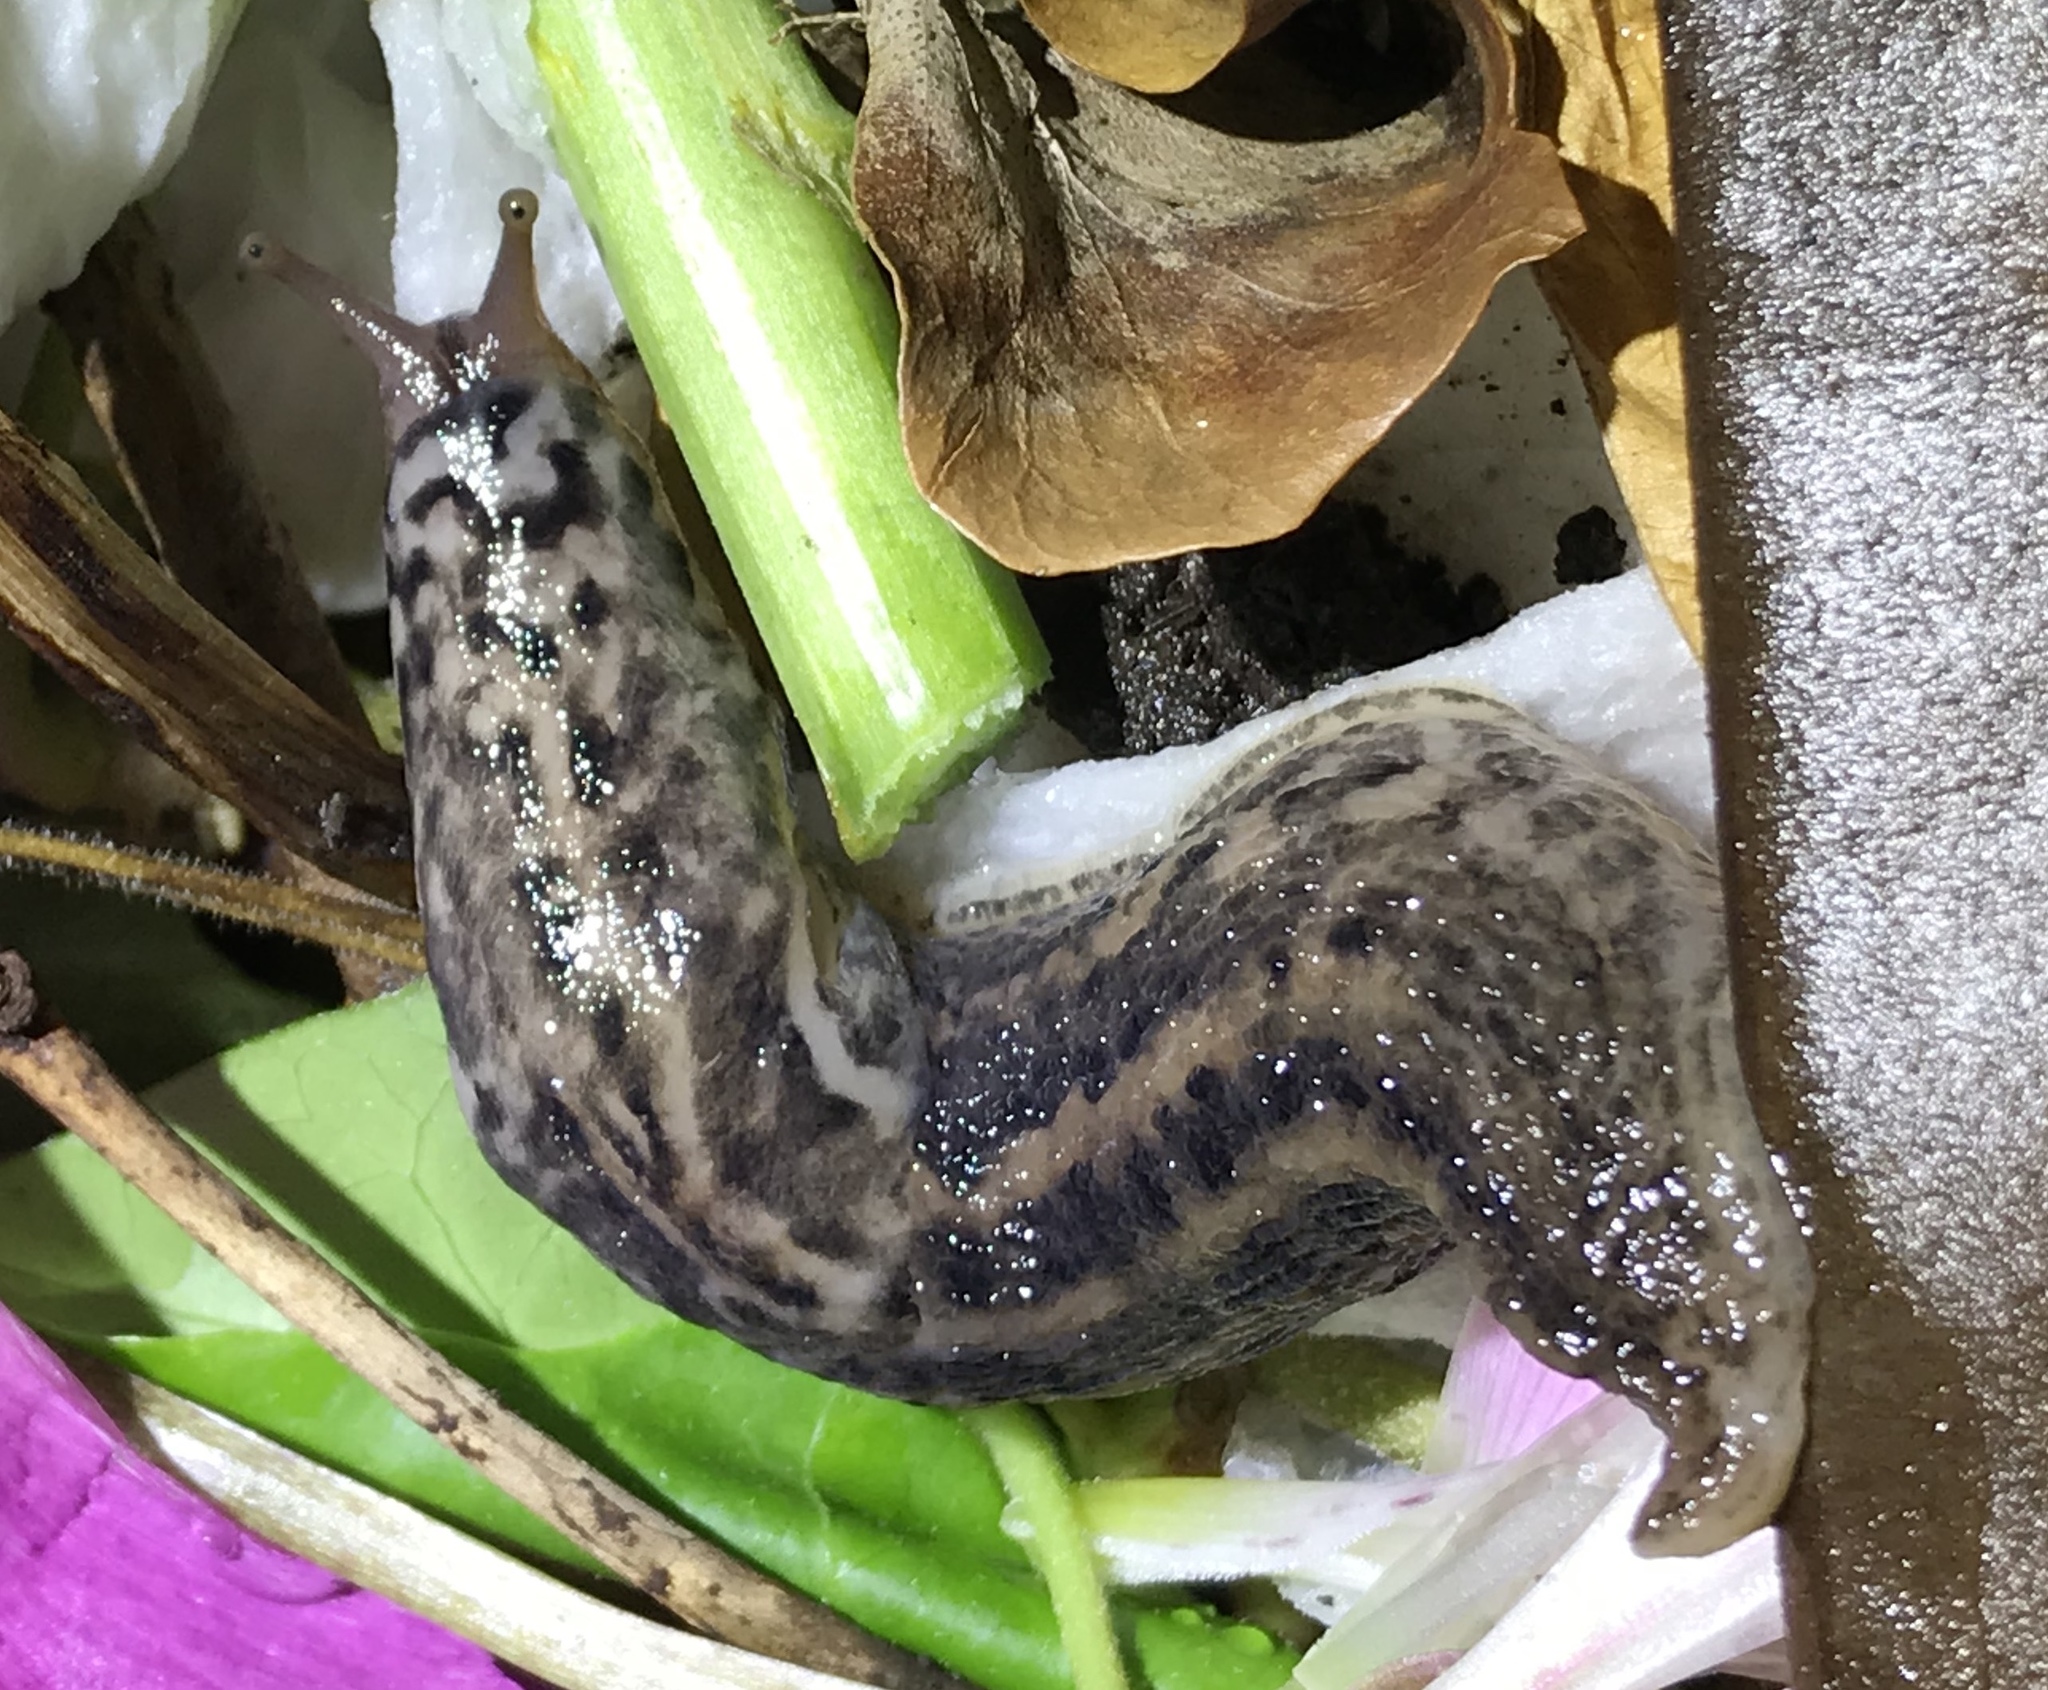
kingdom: Animalia
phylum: Mollusca
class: Gastropoda
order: Stylommatophora
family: Limacidae
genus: Limax
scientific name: Limax maximus
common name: Great grey slug
